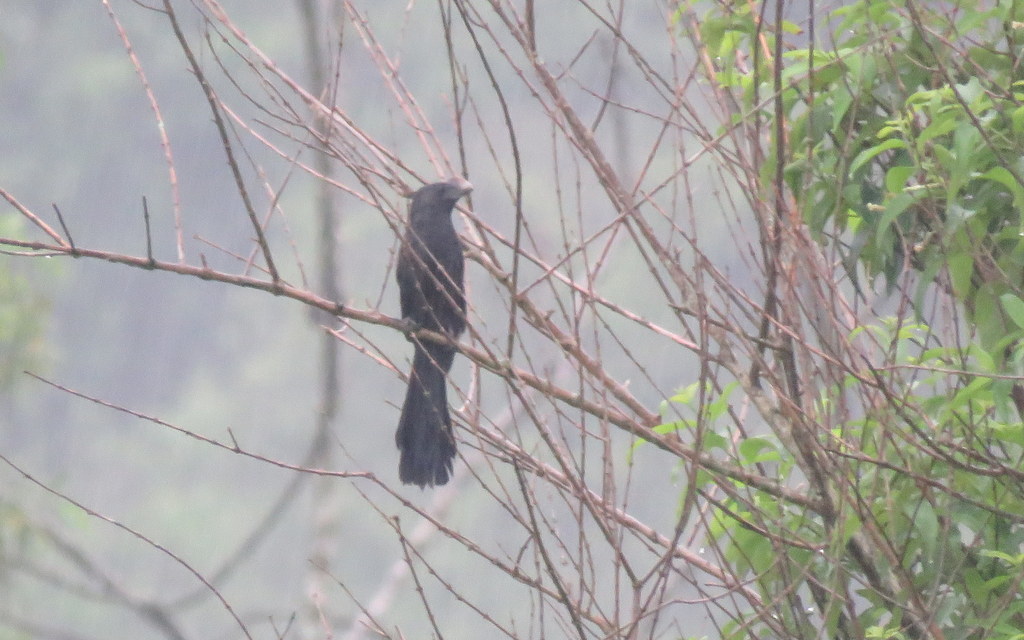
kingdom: Animalia
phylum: Chordata
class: Aves
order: Cuculiformes
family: Cuculidae
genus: Crotophaga
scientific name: Crotophaga ani
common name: Smooth-billed ani
